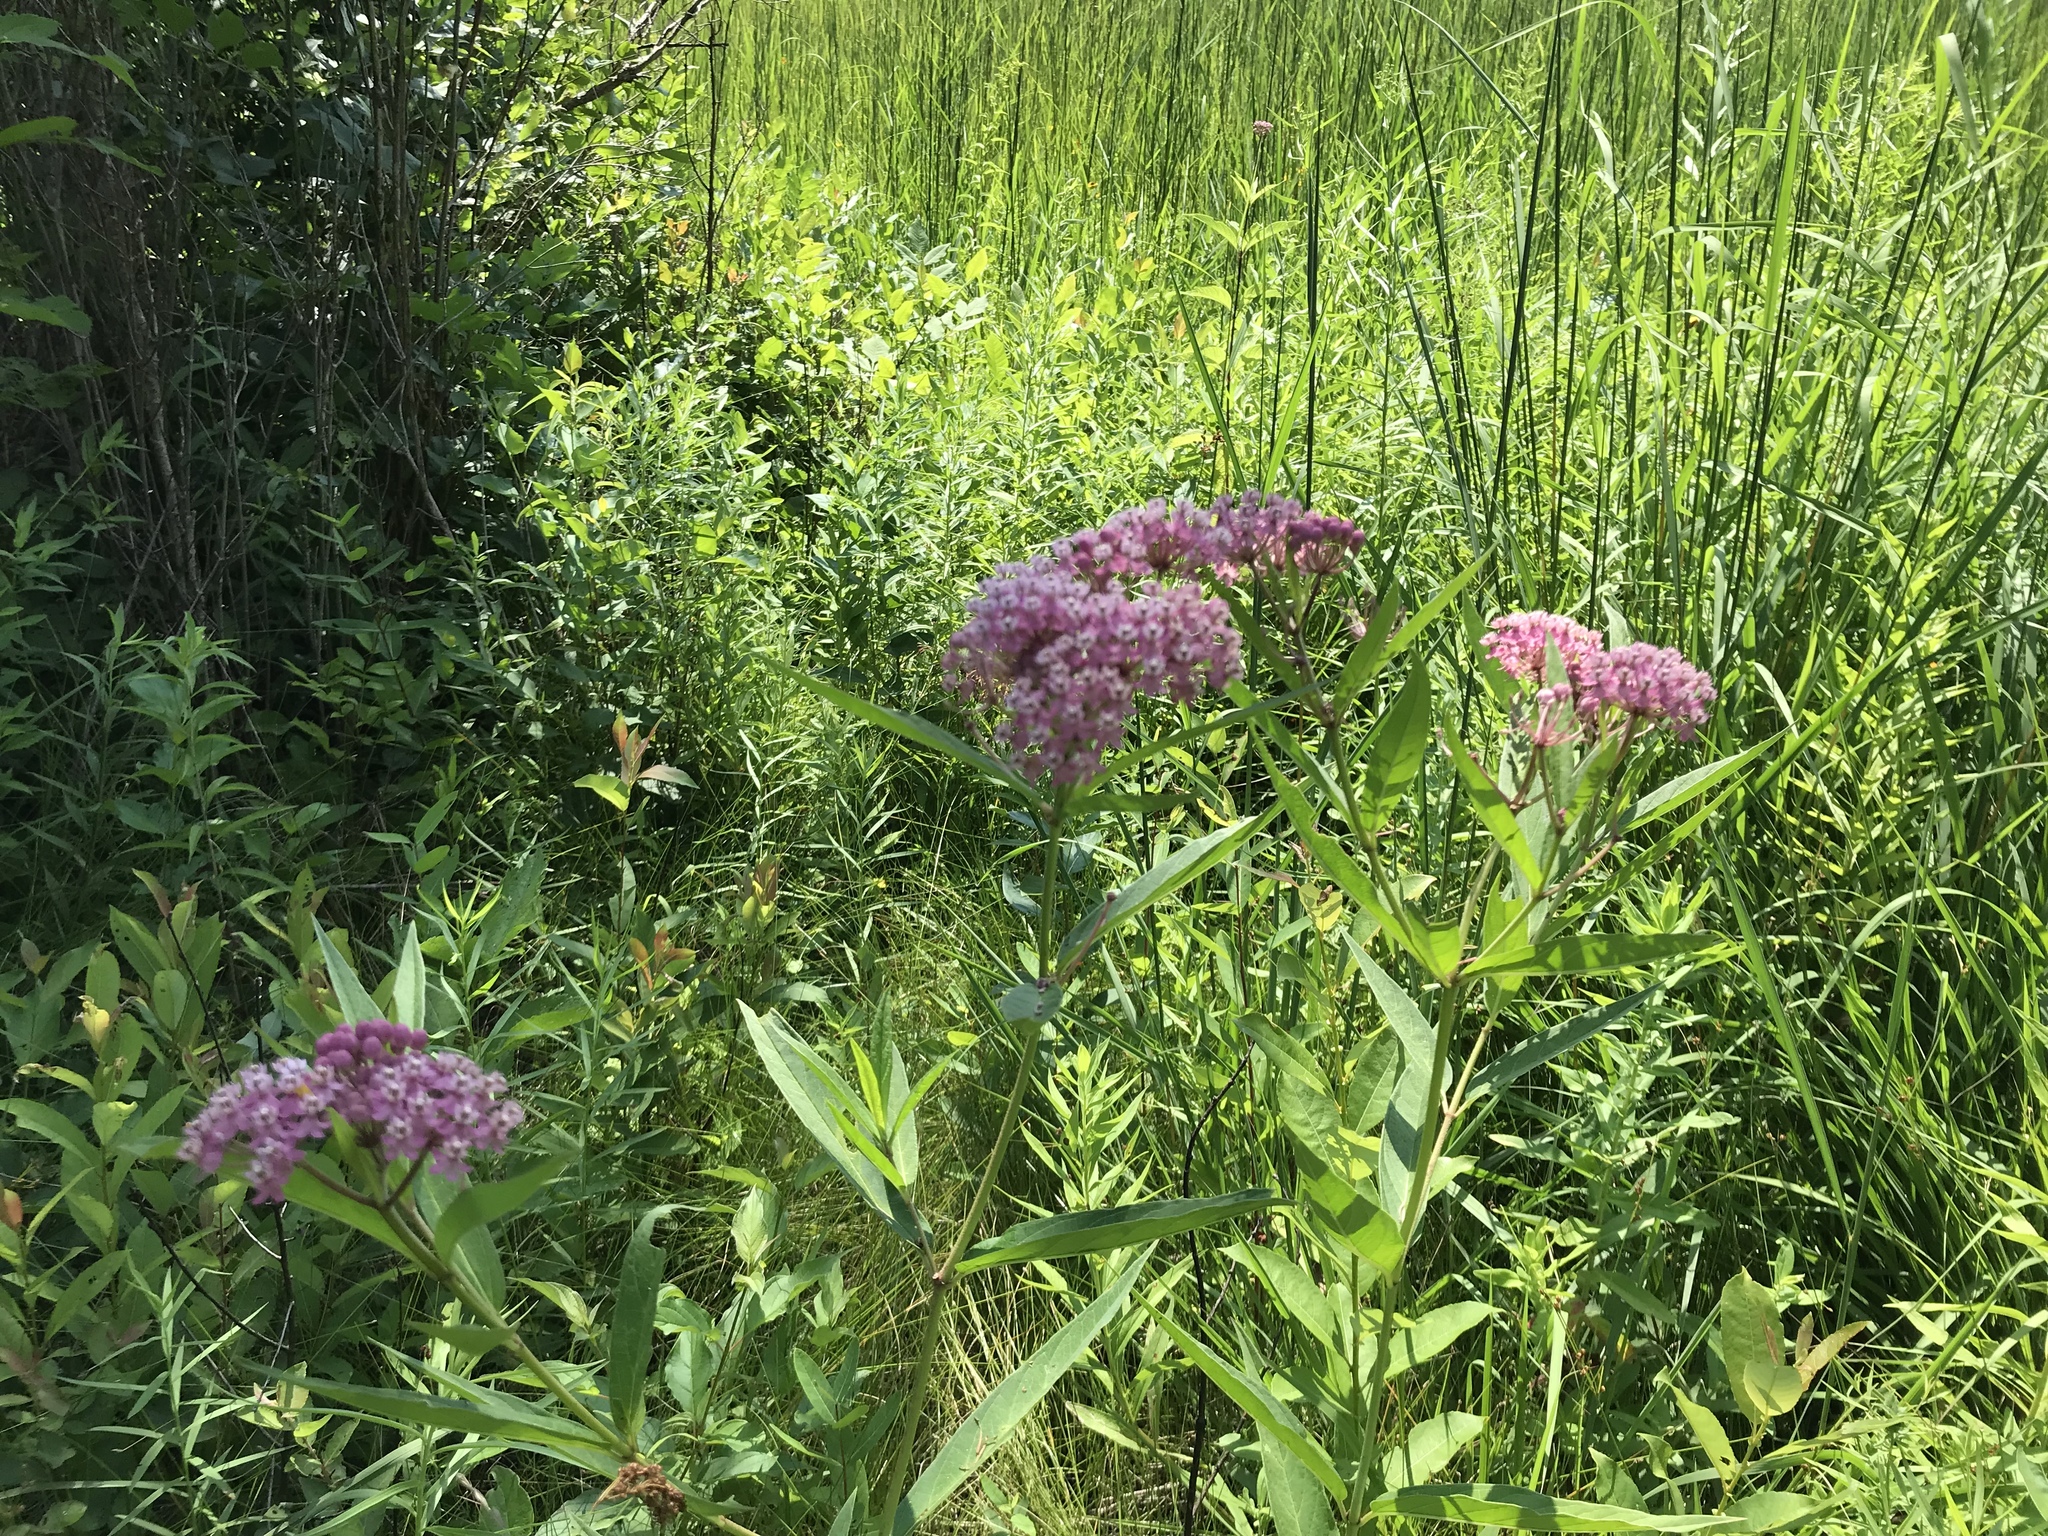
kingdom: Plantae
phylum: Tracheophyta
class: Magnoliopsida
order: Gentianales
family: Apocynaceae
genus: Asclepias
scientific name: Asclepias incarnata
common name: Swamp milkweed
